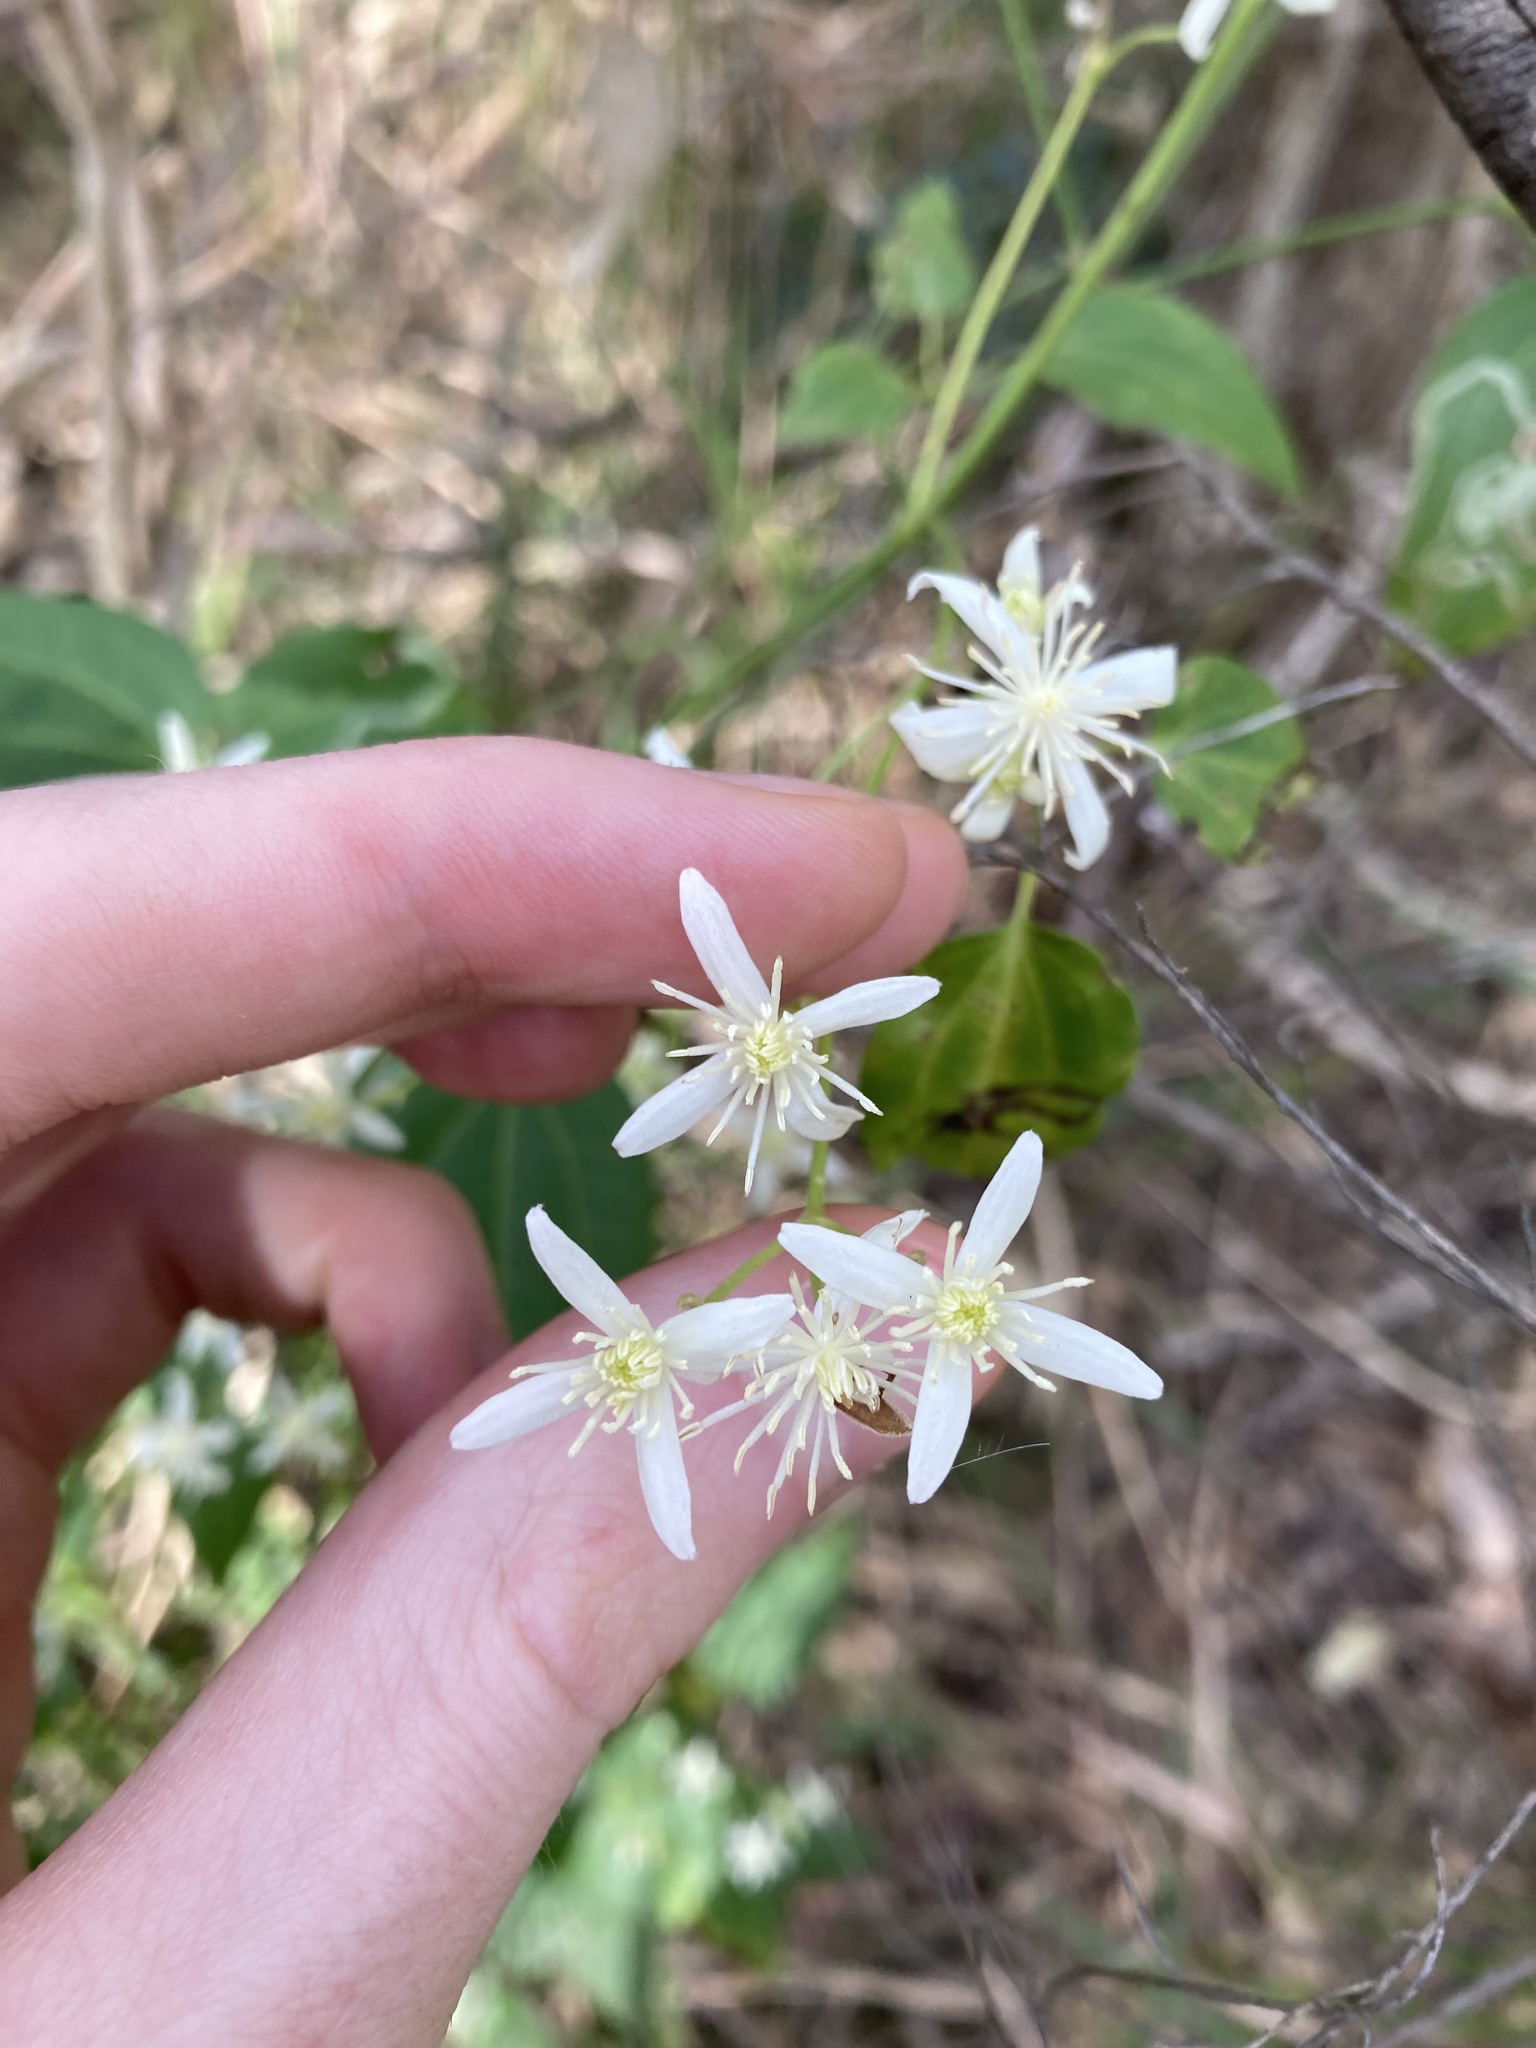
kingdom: Plantae
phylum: Tracheophyta
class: Magnoliopsida
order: Ranunculales
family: Ranunculaceae
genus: Clematis
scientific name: Clematis glycinoides
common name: Forest clematis
